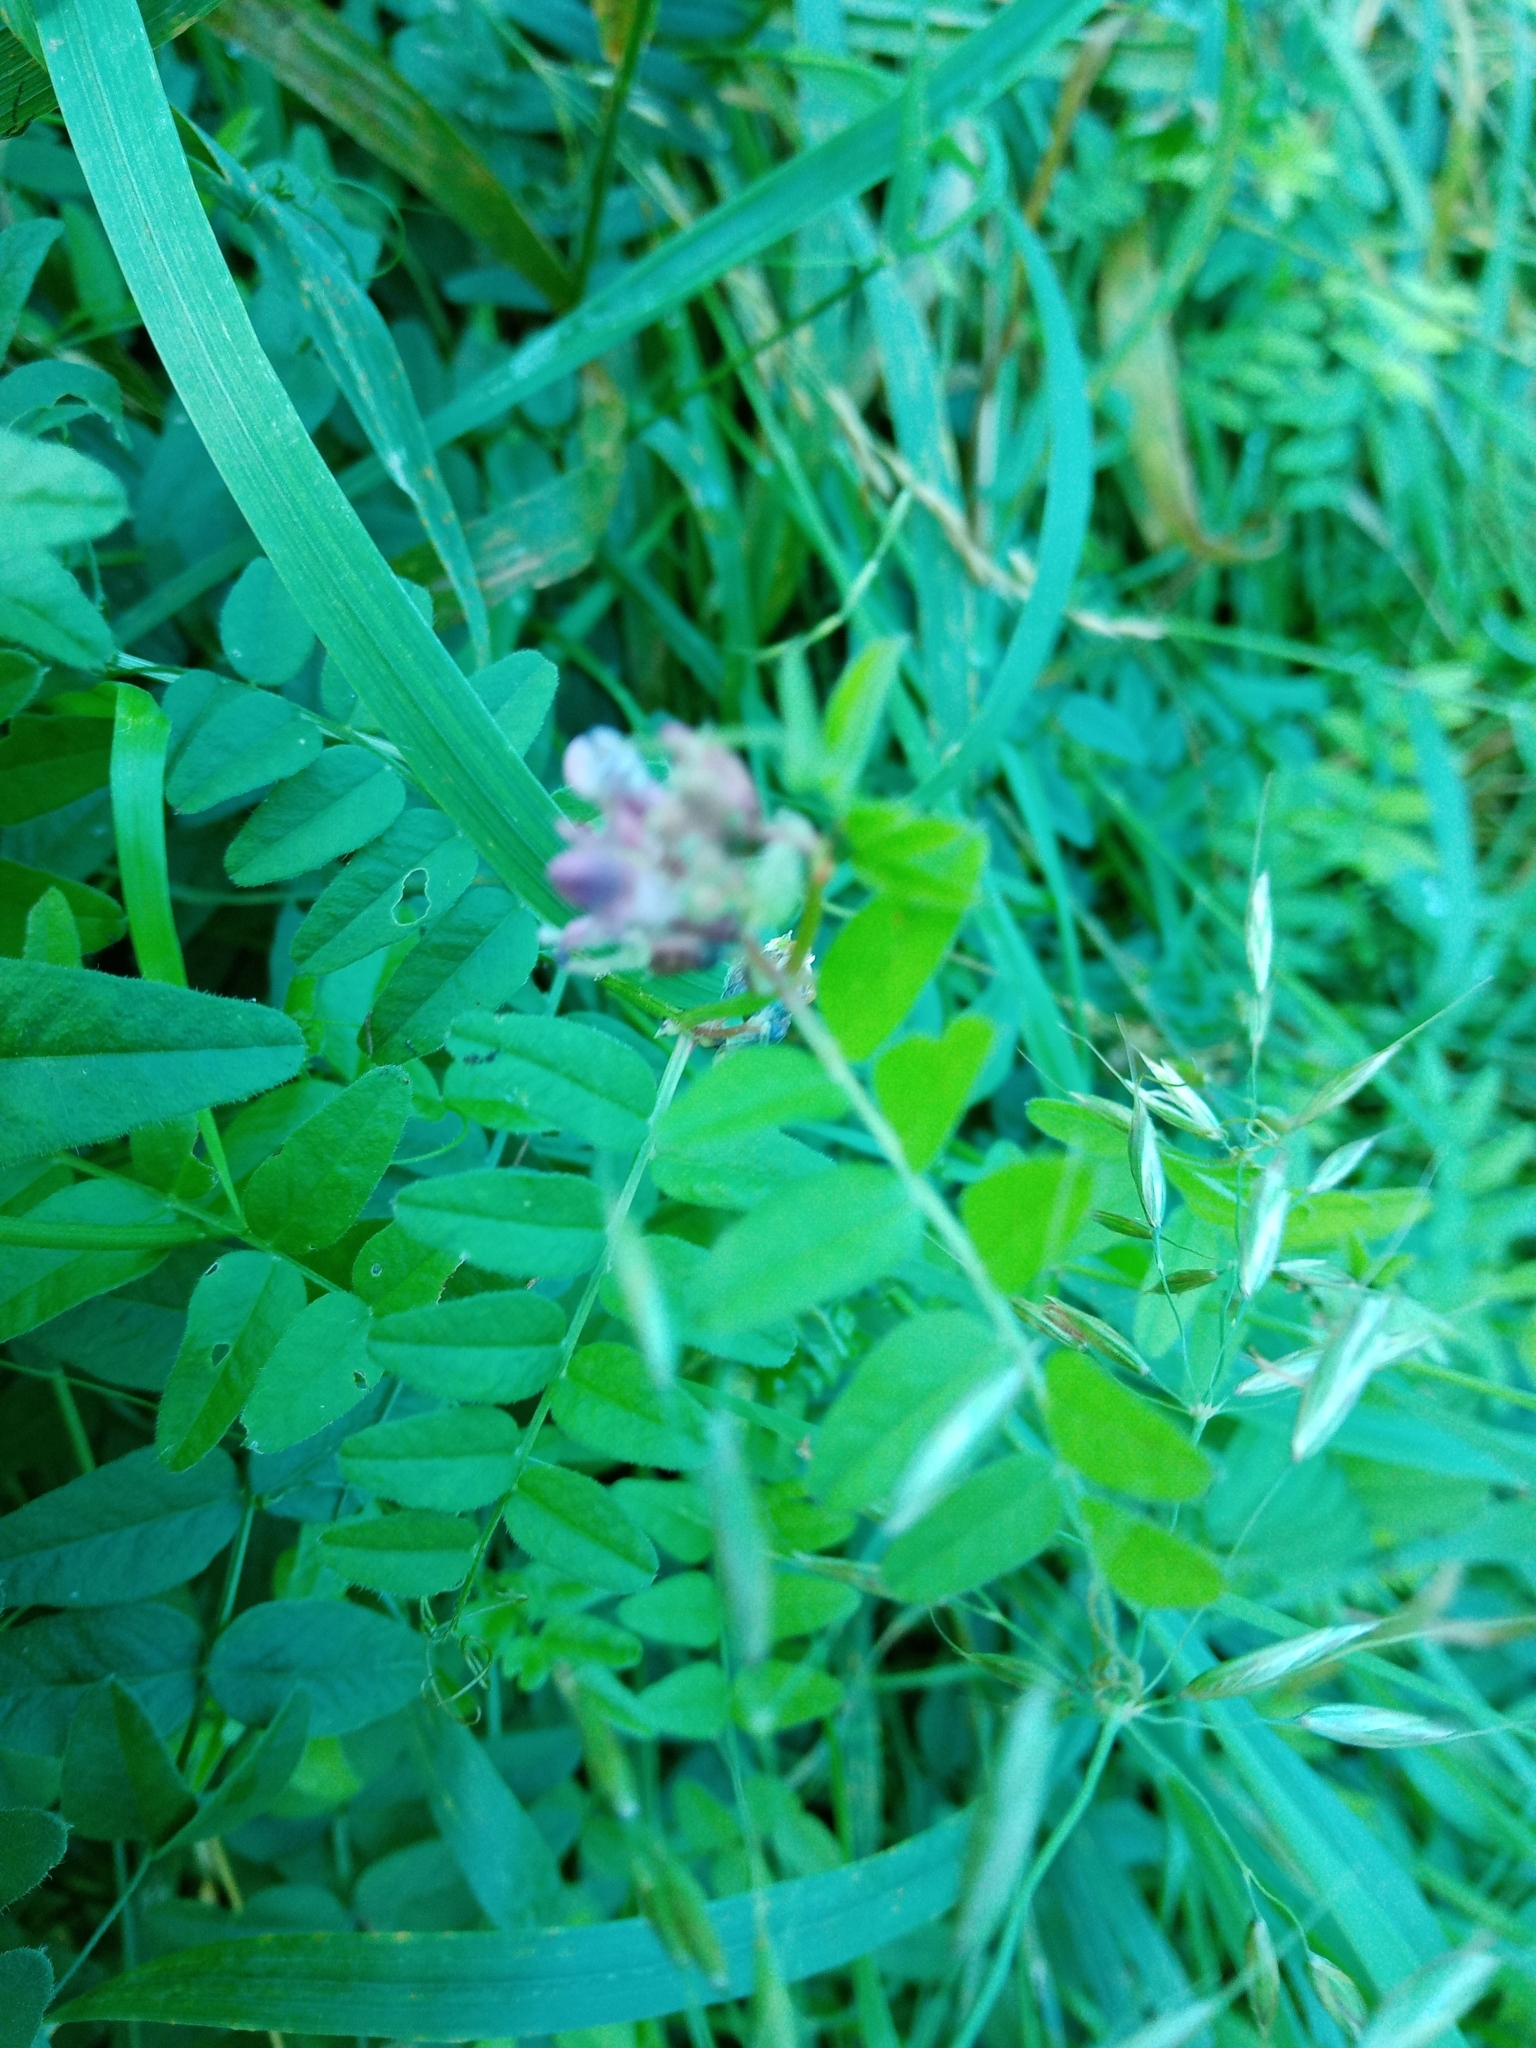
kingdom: Plantae
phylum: Tracheophyta
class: Magnoliopsida
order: Fabales
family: Fabaceae
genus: Vicia
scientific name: Vicia sepium
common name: Bush vetch
